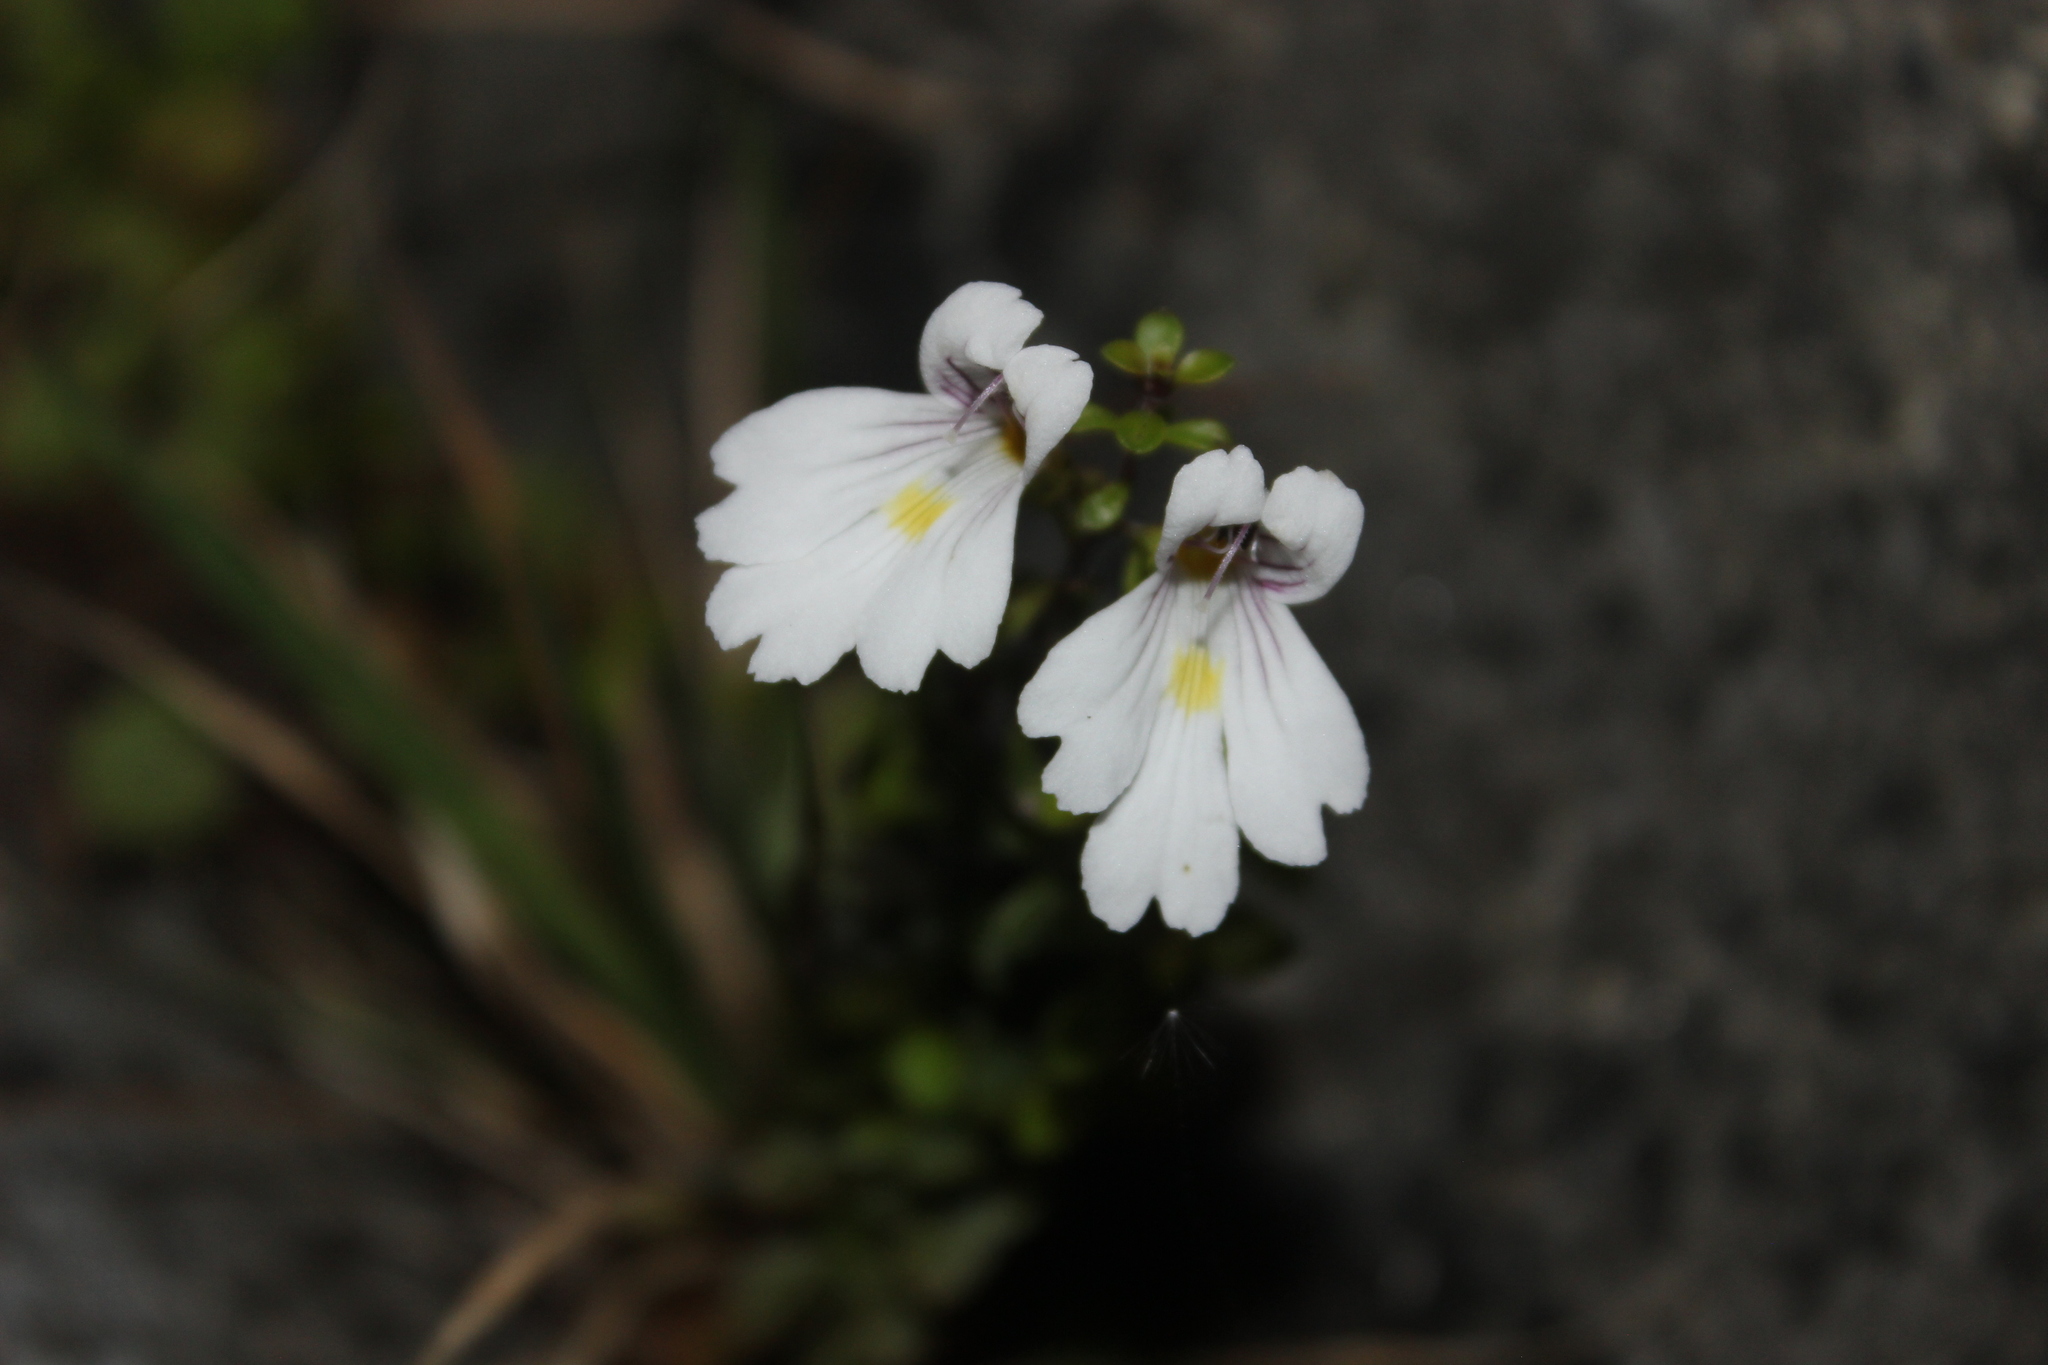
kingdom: Plantae
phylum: Tracheophyta
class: Magnoliopsida
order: Lamiales
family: Orobanchaceae
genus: Euphrasia
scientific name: Euphrasia cuneata
